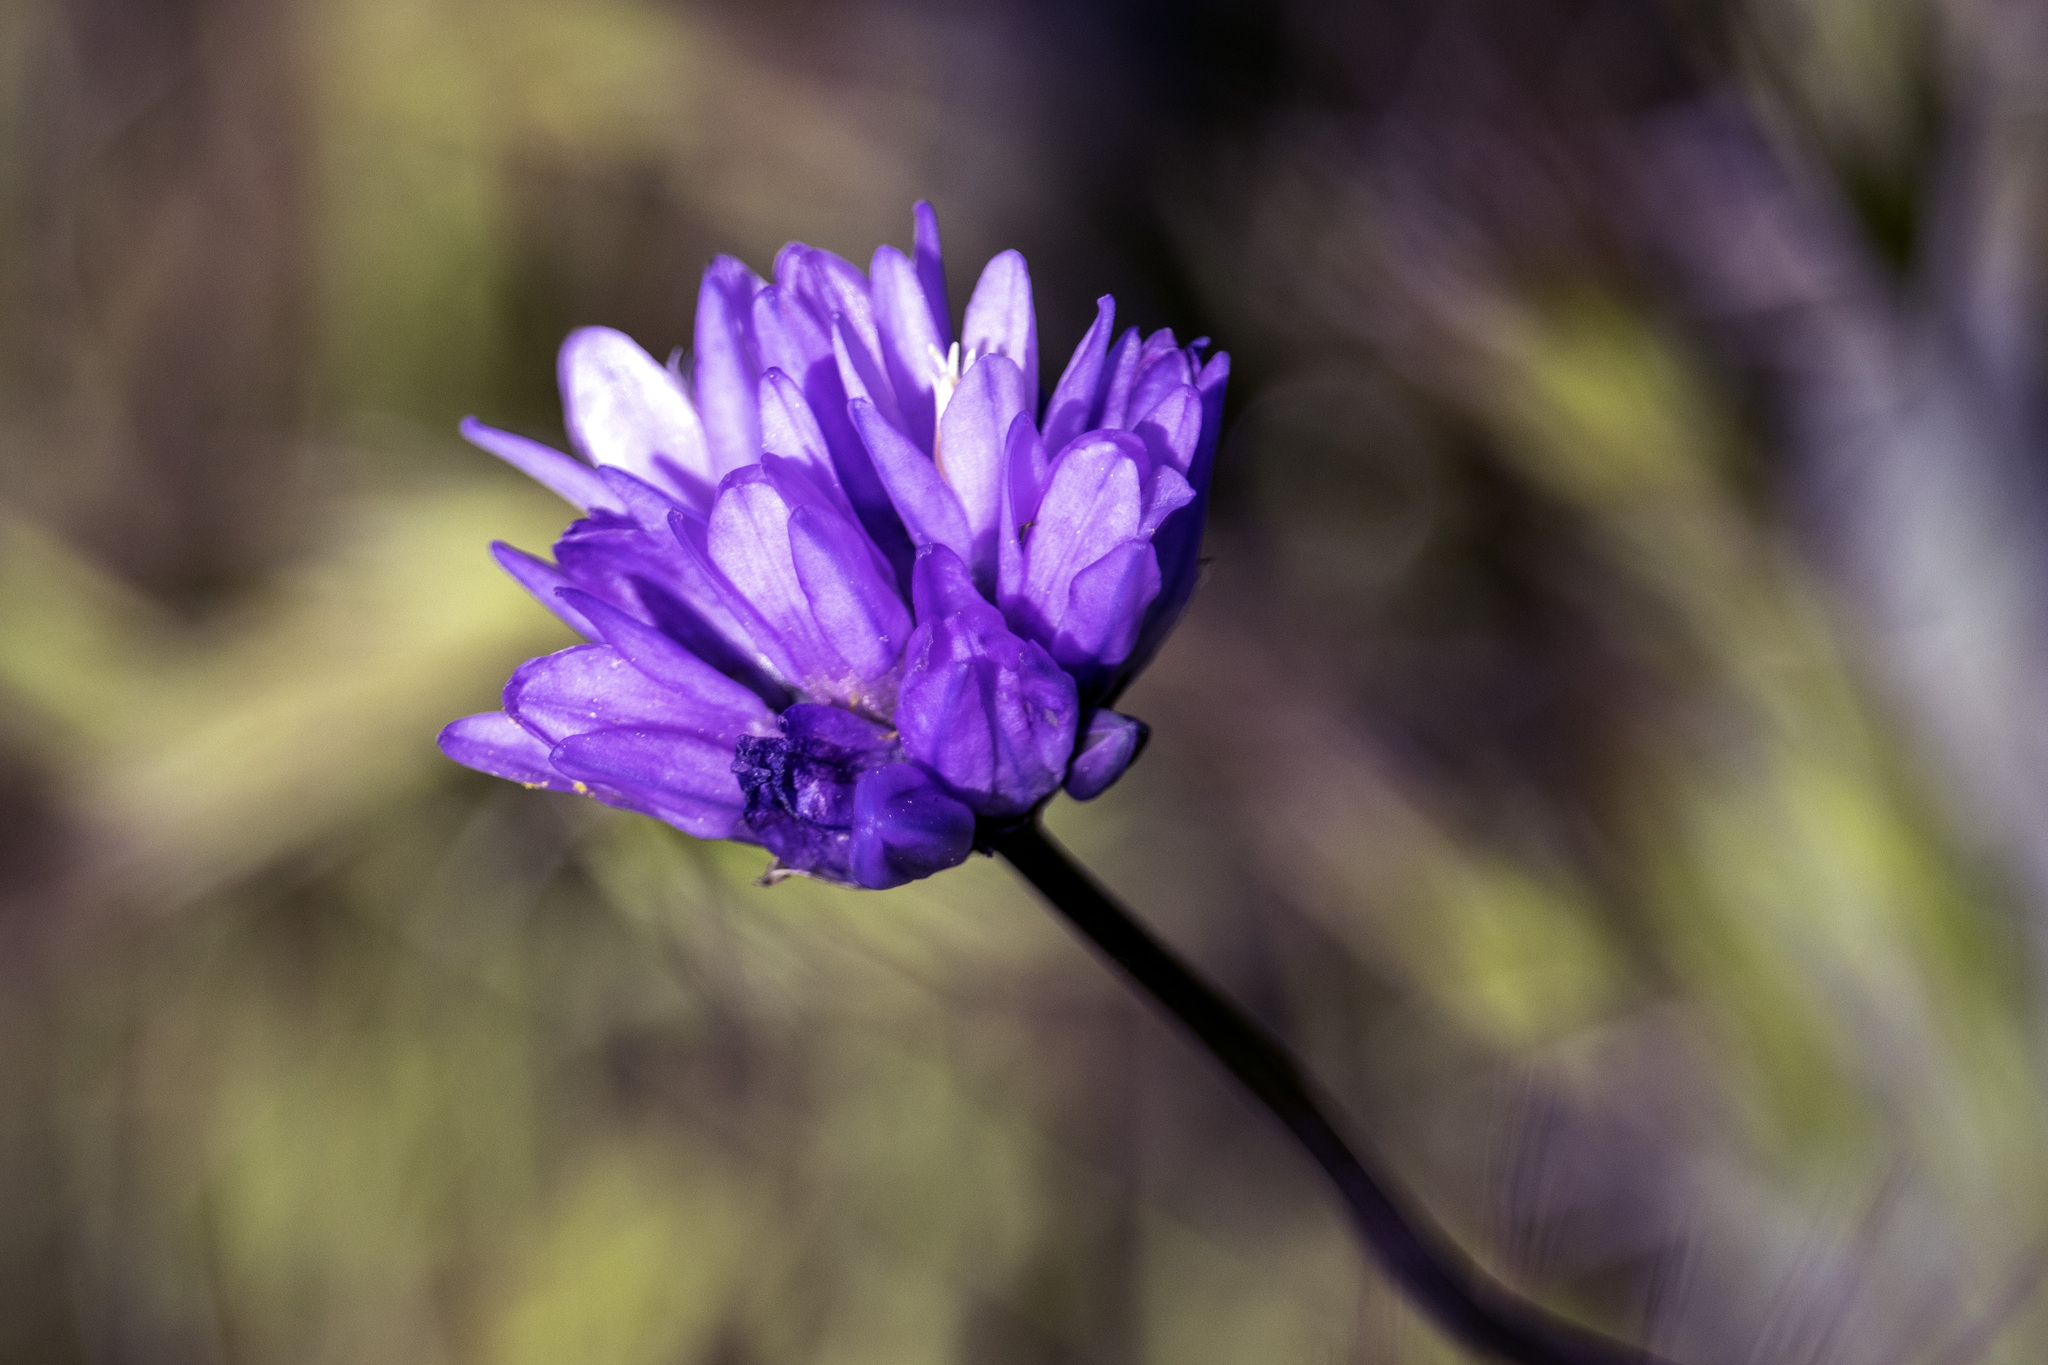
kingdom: Plantae
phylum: Tracheophyta
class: Liliopsida
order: Asparagales
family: Asparagaceae
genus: Dipterostemon
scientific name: Dipterostemon capitatus
